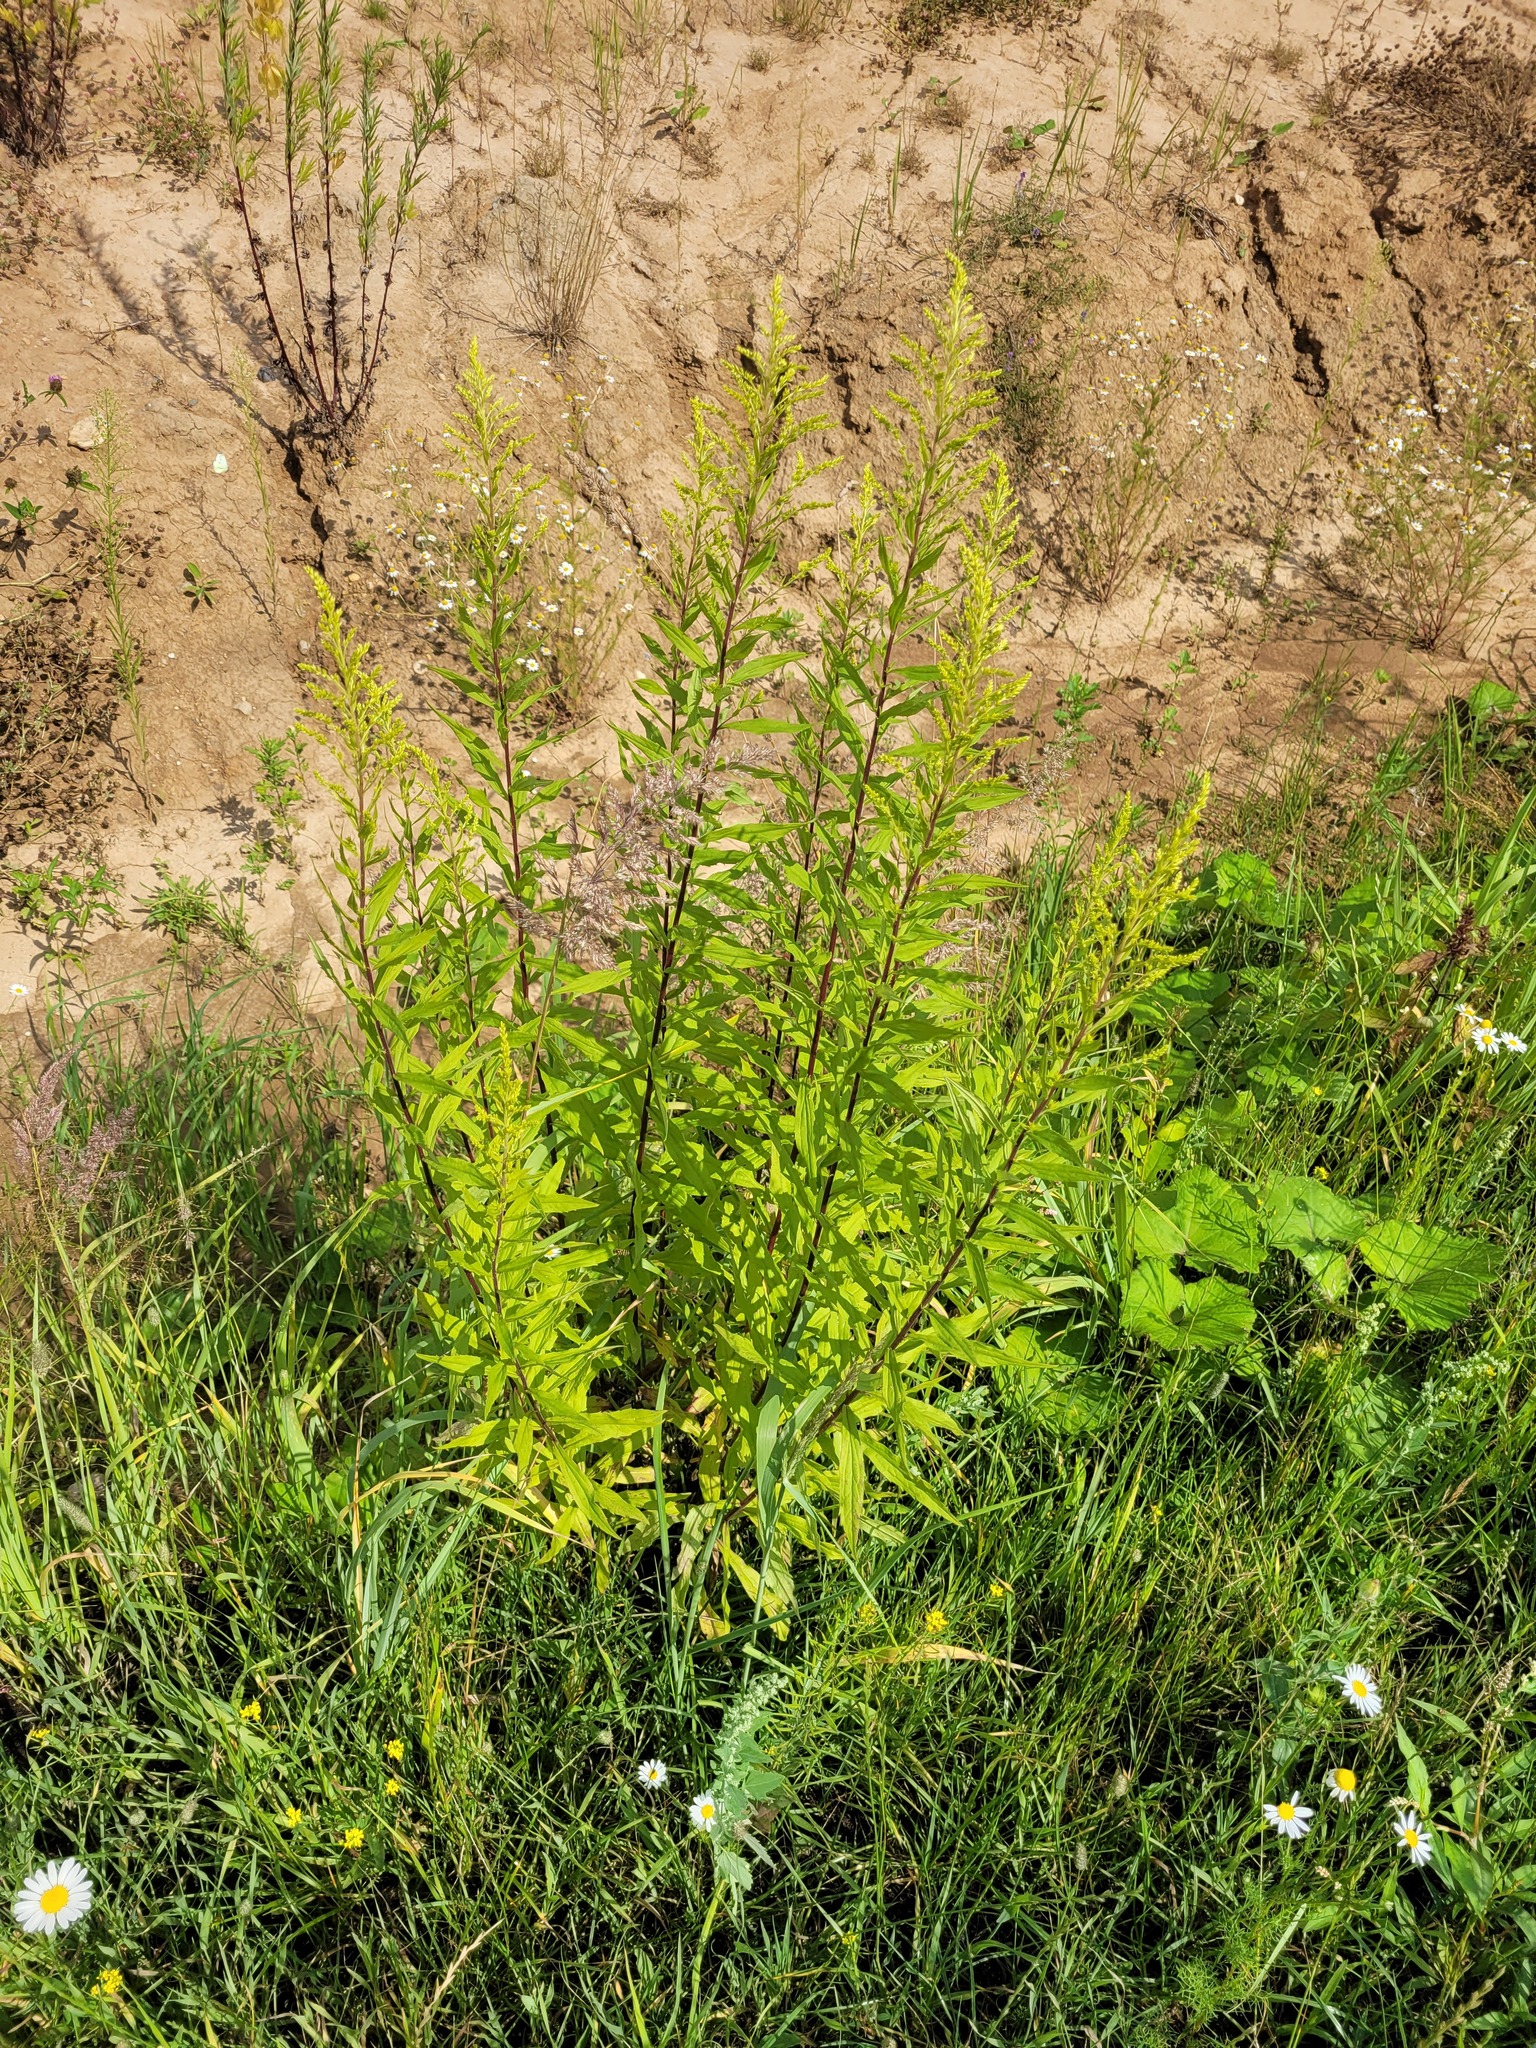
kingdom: Plantae
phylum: Tracheophyta
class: Magnoliopsida
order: Asterales
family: Asteraceae
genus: Solidago
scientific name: Solidago canadensis
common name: Canada goldenrod
